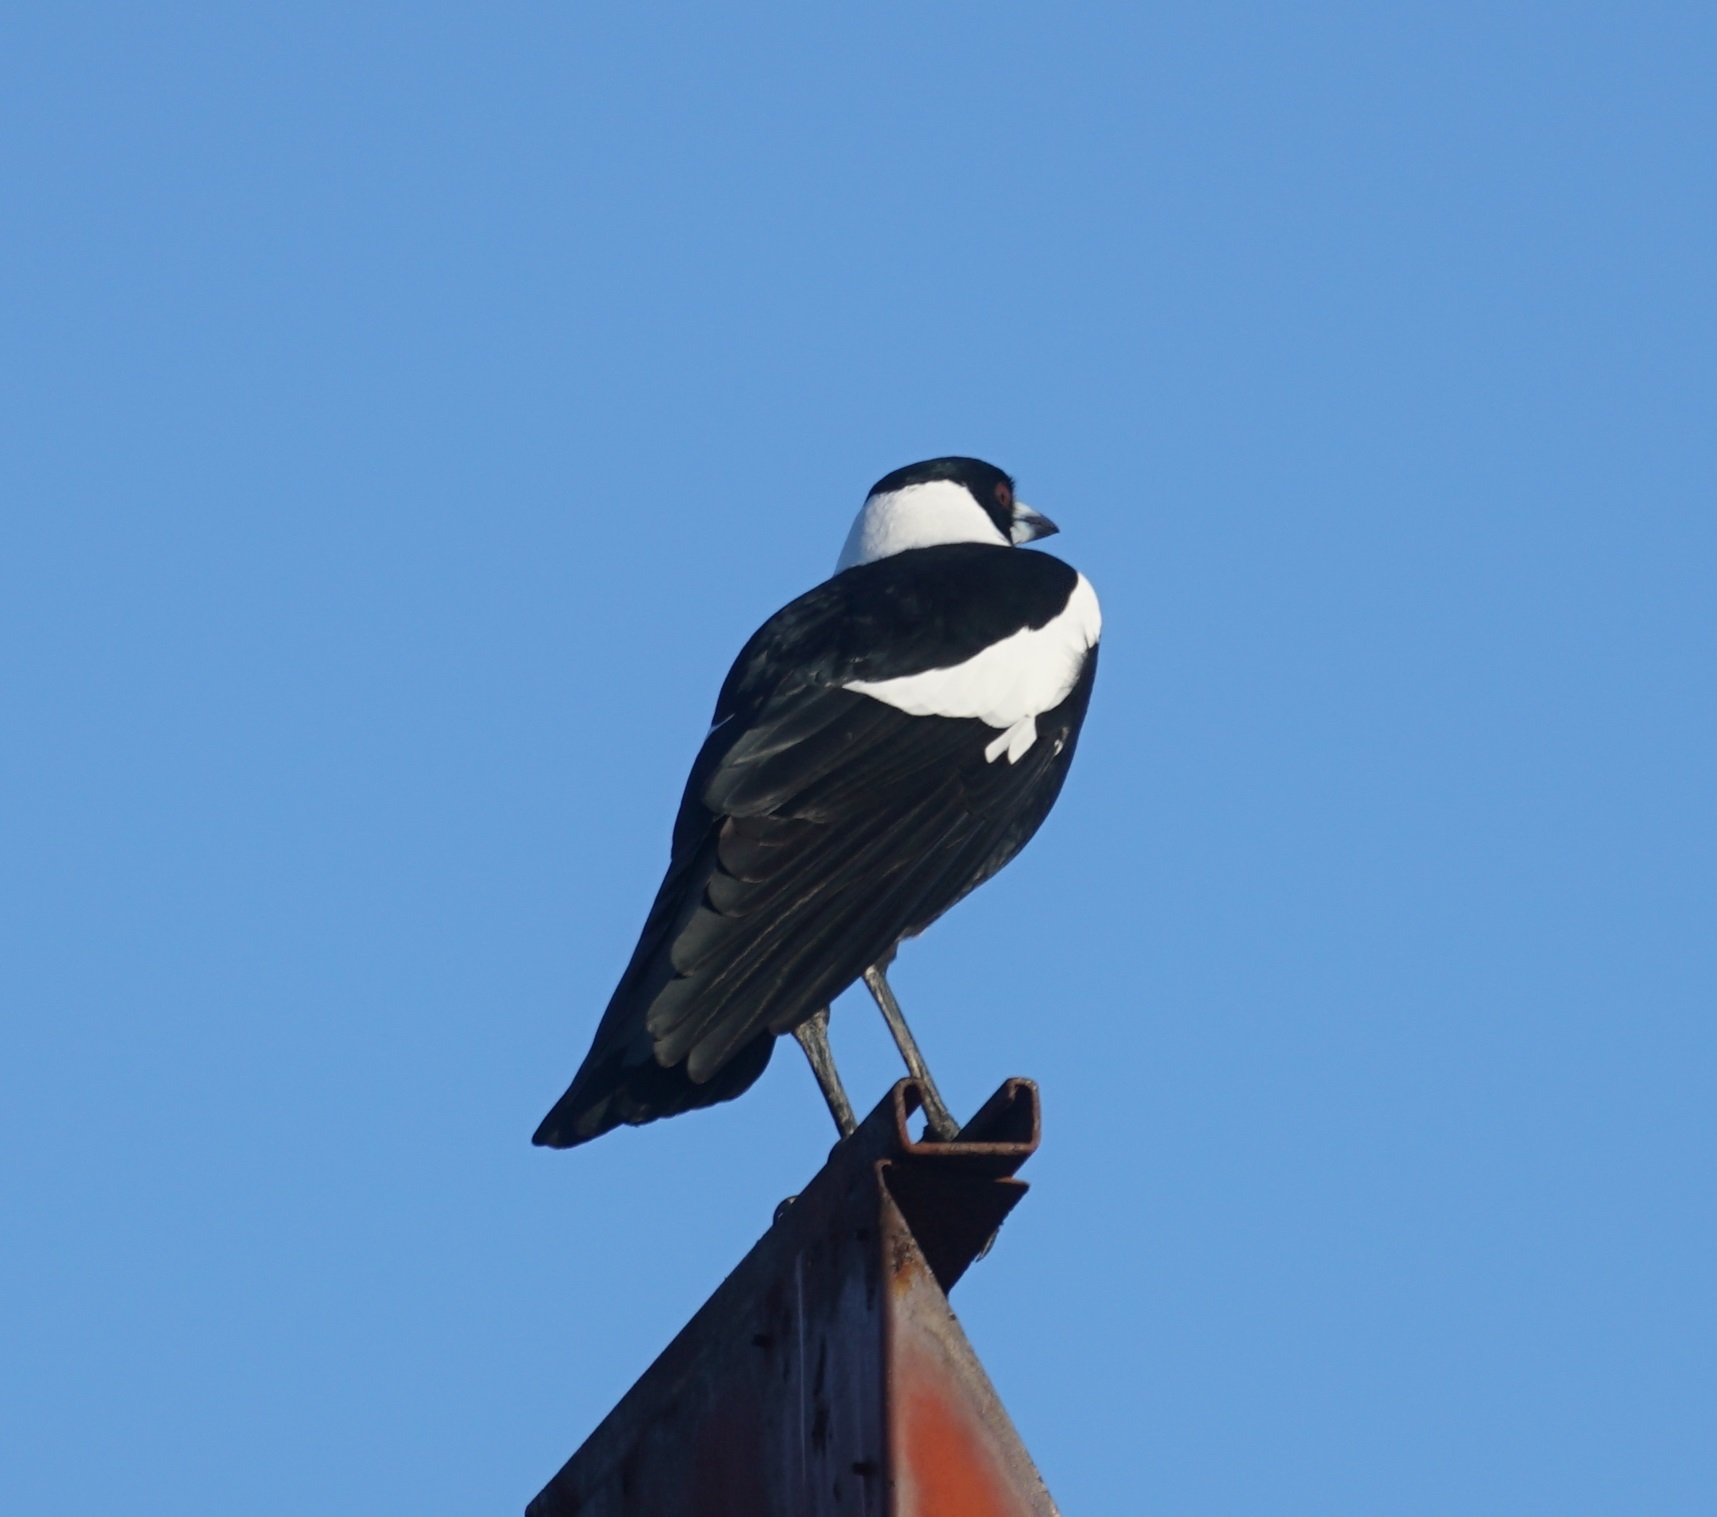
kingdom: Animalia
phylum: Chordata
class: Aves
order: Passeriformes
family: Cracticidae
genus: Gymnorhina
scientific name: Gymnorhina tibicen
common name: Australian magpie
